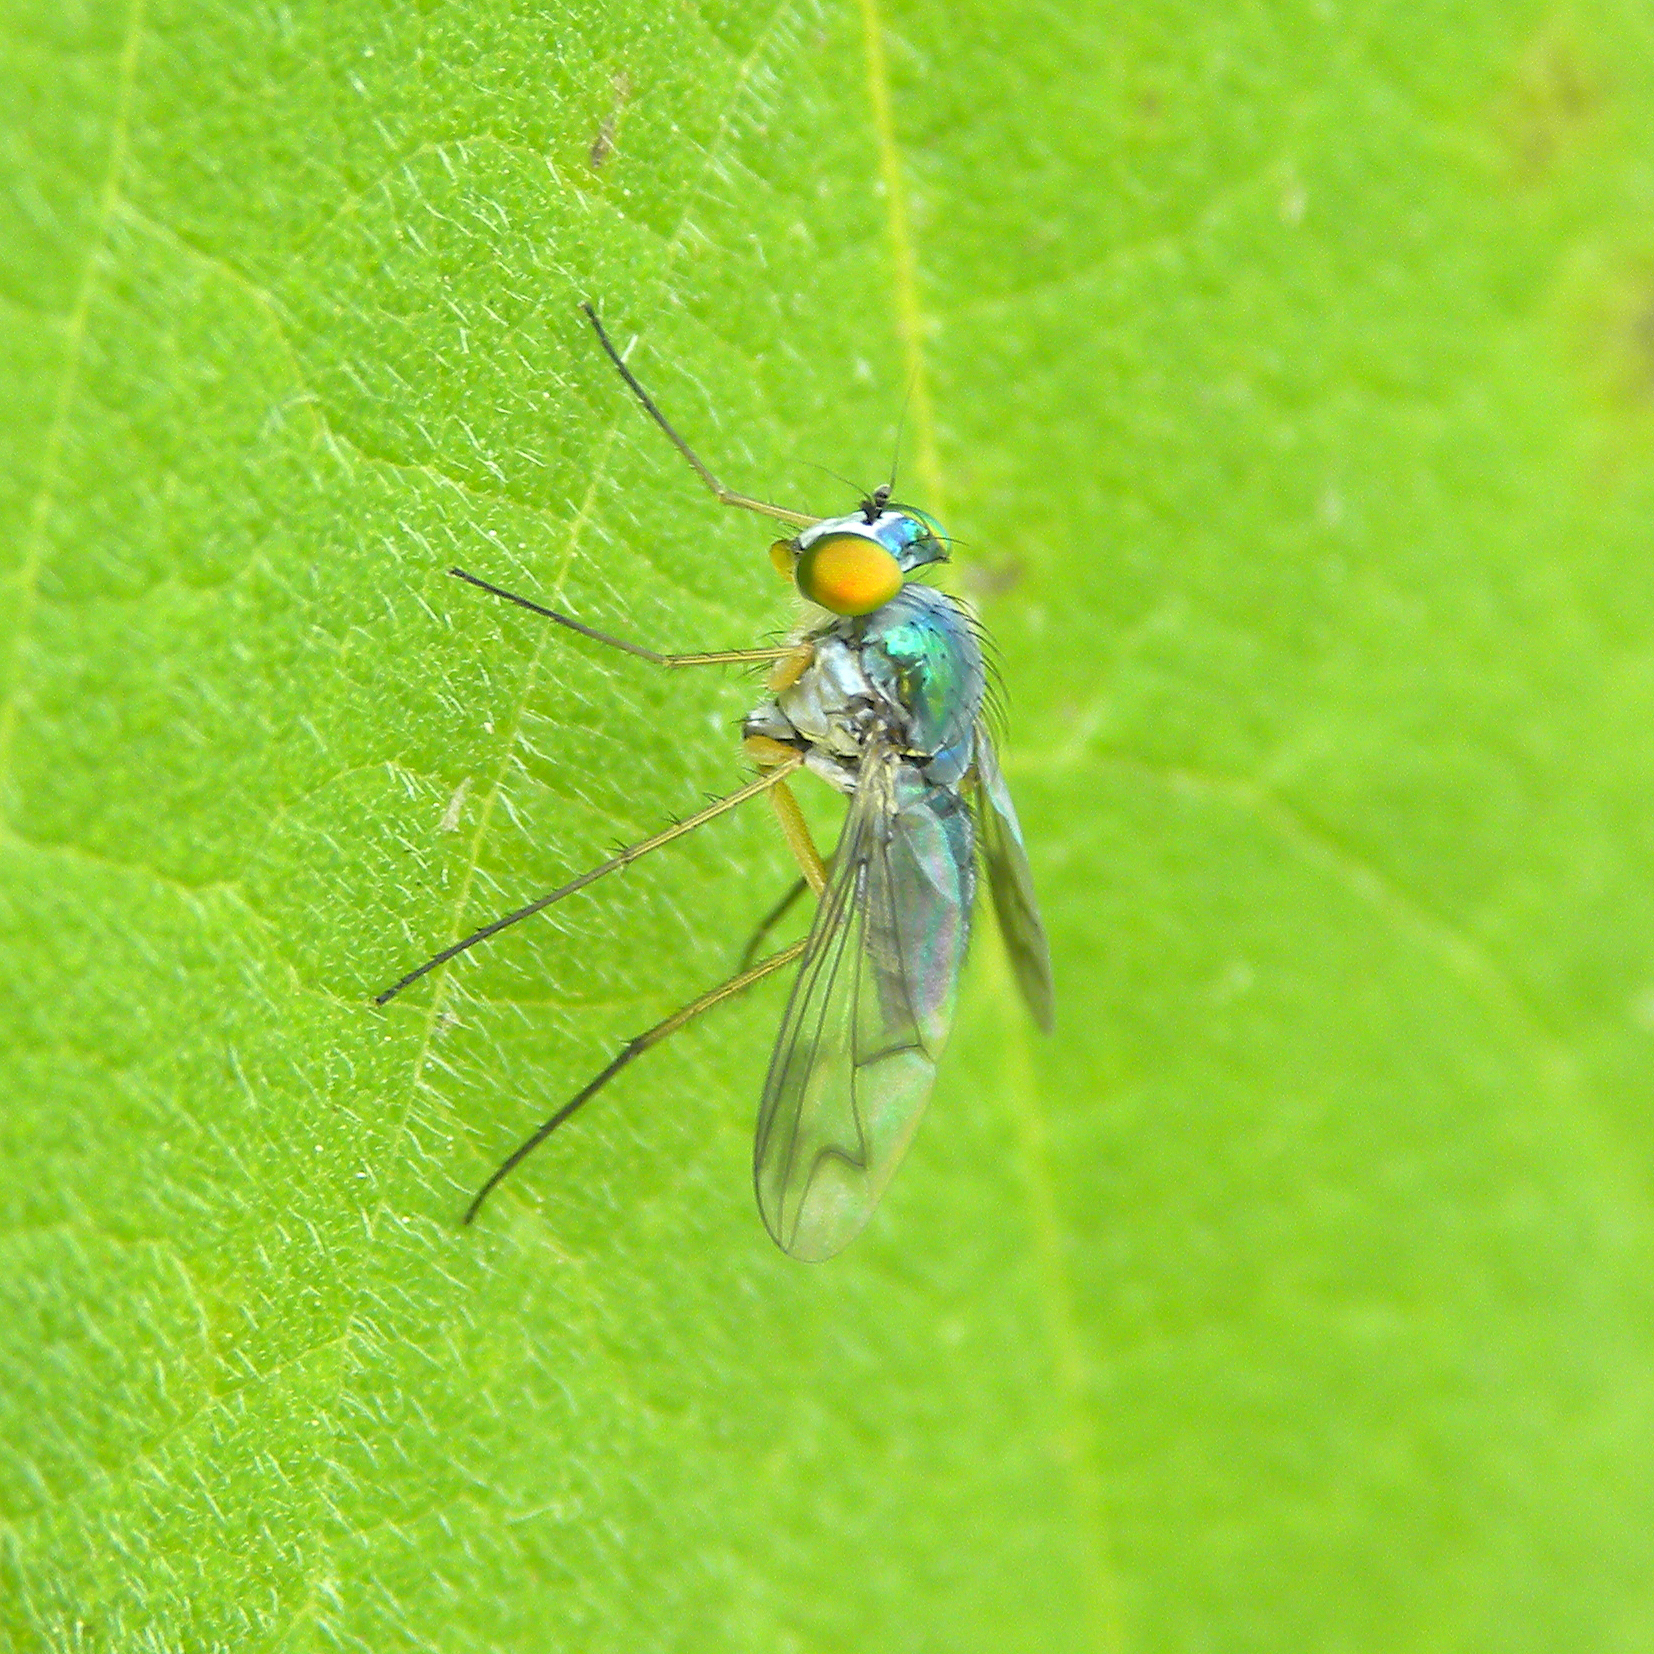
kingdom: Animalia
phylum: Arthropoda
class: Insecta
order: Diptera
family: Dolichopodidae
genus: Condylostylus
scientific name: Condylostylus
